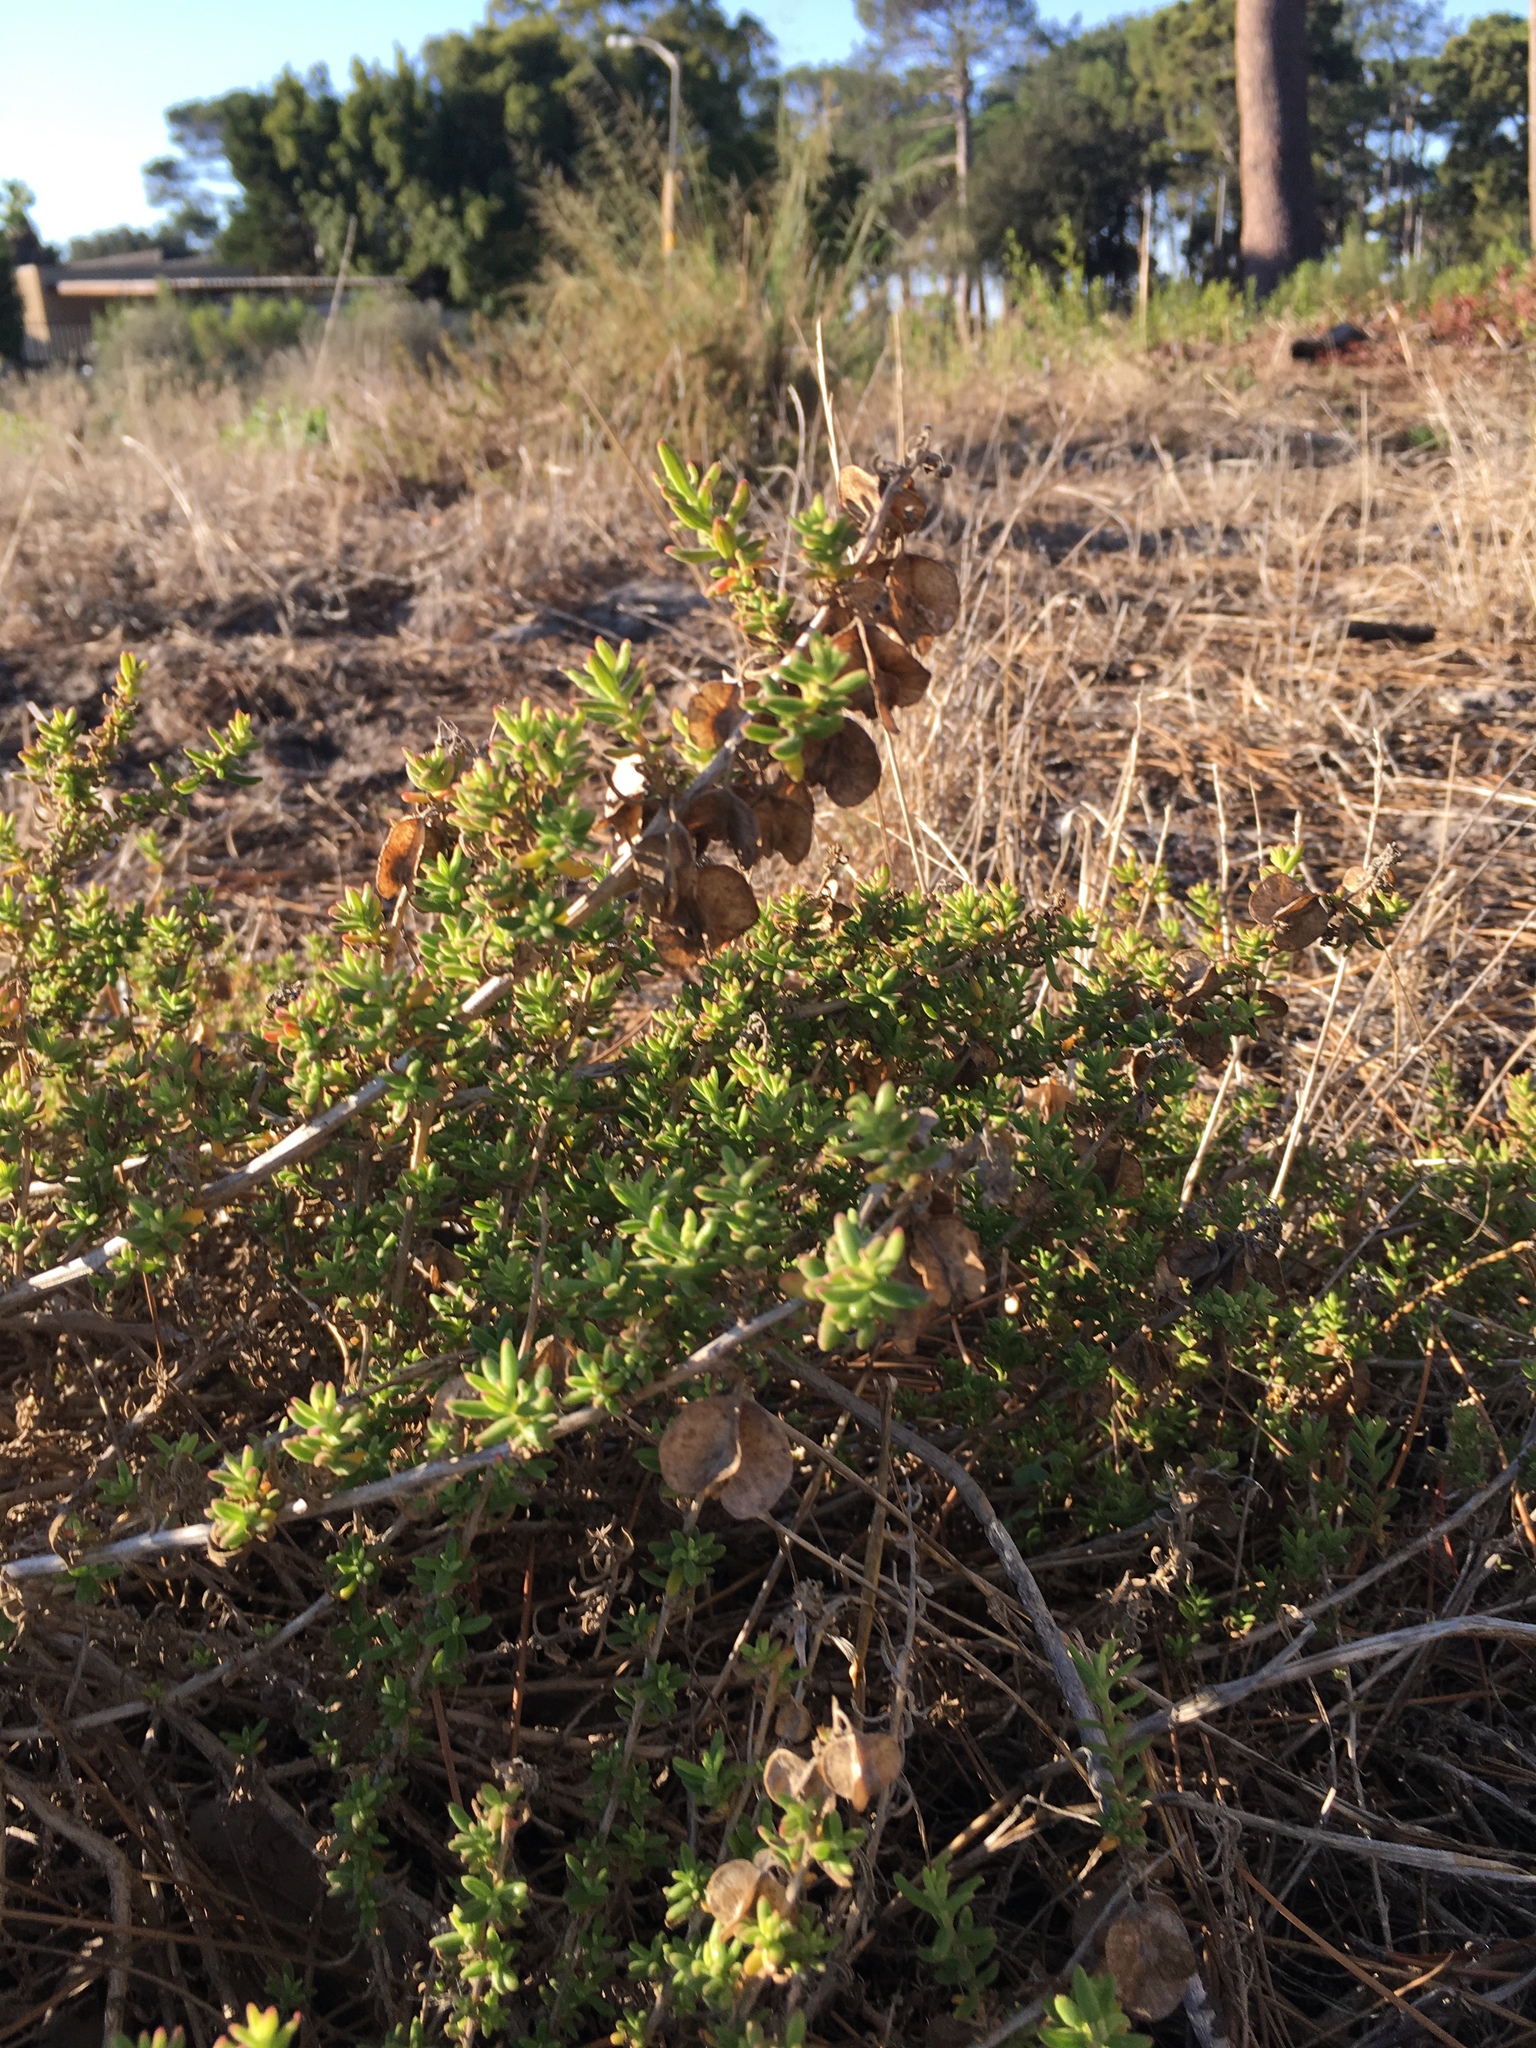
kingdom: Plantae
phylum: Tracheophyta
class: Magnoliopsida
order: Caryophyllales
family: Aizoaceae
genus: Tetragonia
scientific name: Tetragonia fruticosa
